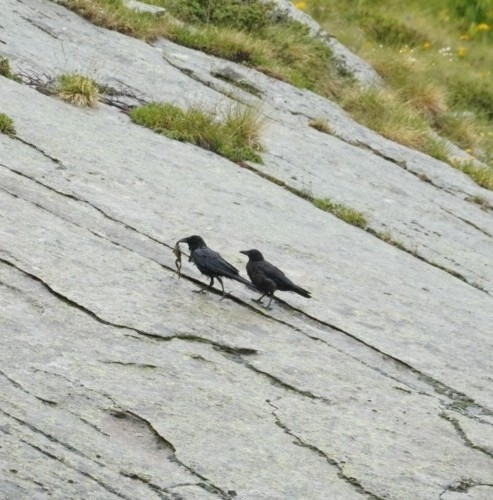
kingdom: Animalia
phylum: Chordata
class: Aves
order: Passeriformes
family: Corvidae
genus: Corvus
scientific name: Corvus corax
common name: Common raven
